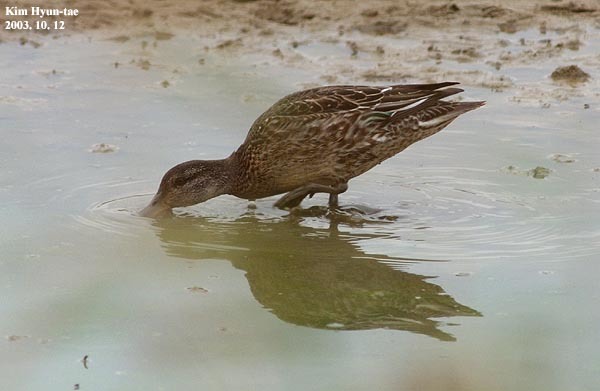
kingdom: Animalia
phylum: Chordata
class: Aves
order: Anseriformes
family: Anatidae
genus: Anas
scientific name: Anas crecca
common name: Eurasian teal
